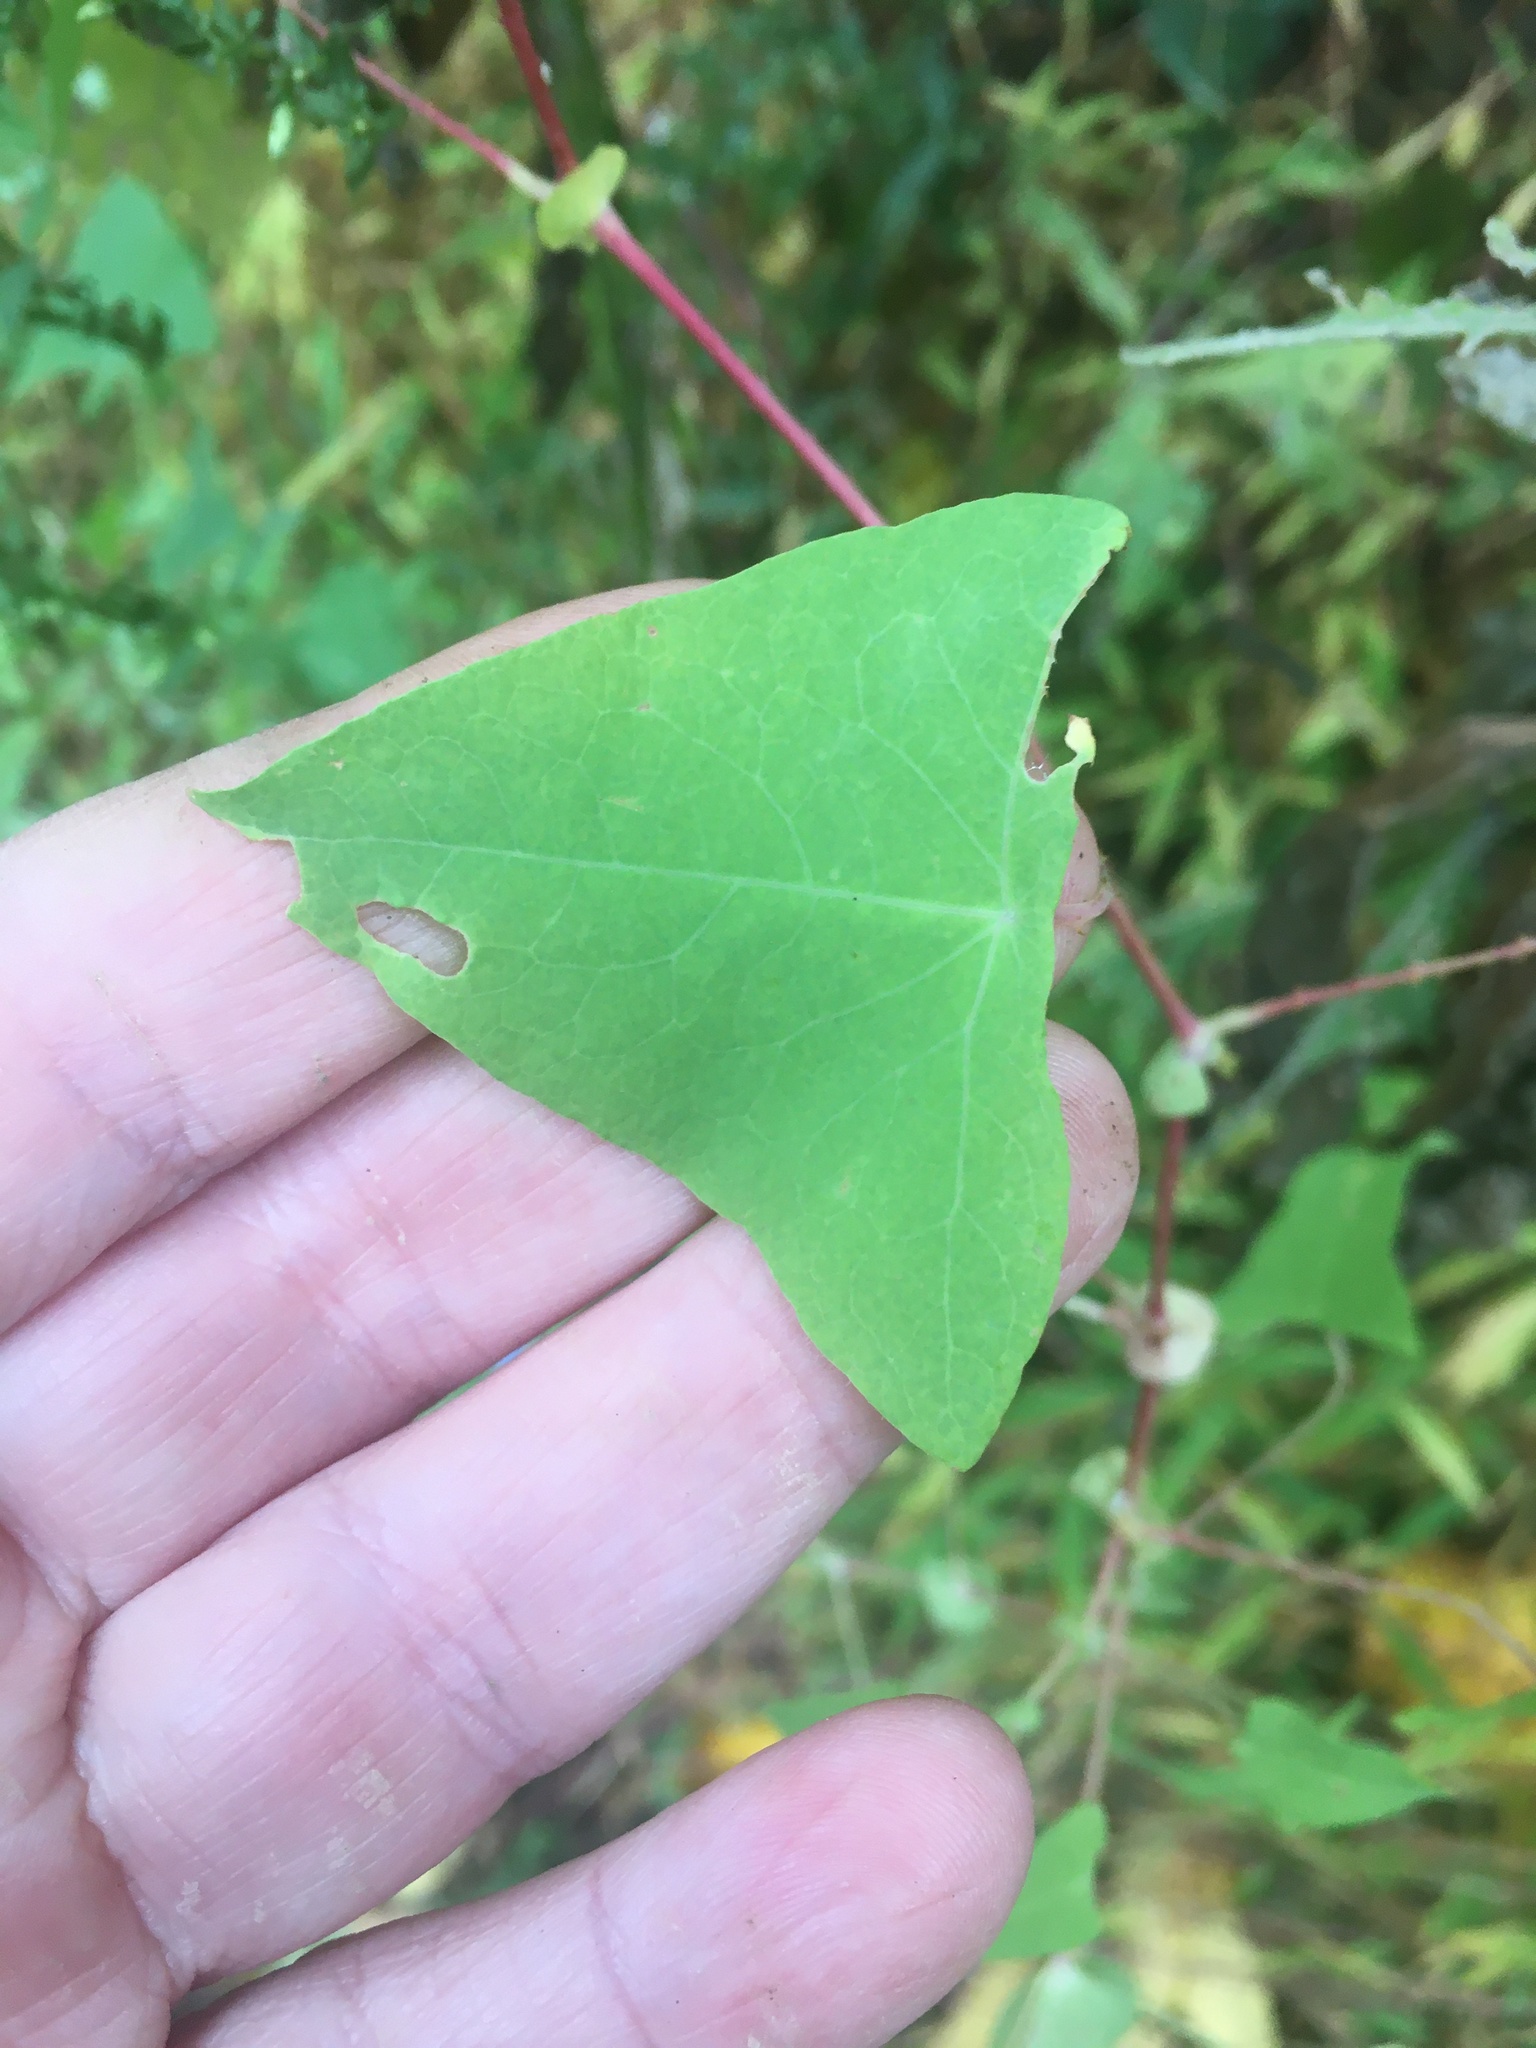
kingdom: Plantae
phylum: Tracheophyta
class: Magnoliopsida
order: Caryophyllales
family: Polygonaceae
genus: Persicaria
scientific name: Persicaria perfoliata
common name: Asiatic tearthumb
